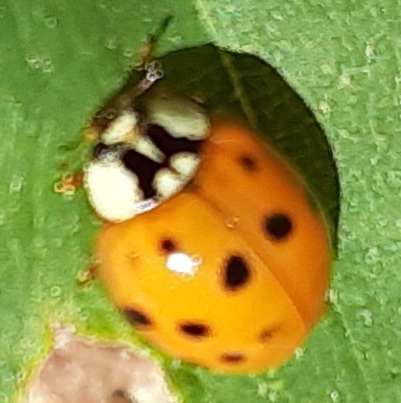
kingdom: Animalia
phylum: Arthropoda
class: Insecta
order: Coleoptera
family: Coccinellidae
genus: Harmonia
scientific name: Harmonia axyridis
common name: Harlequin ladybird
